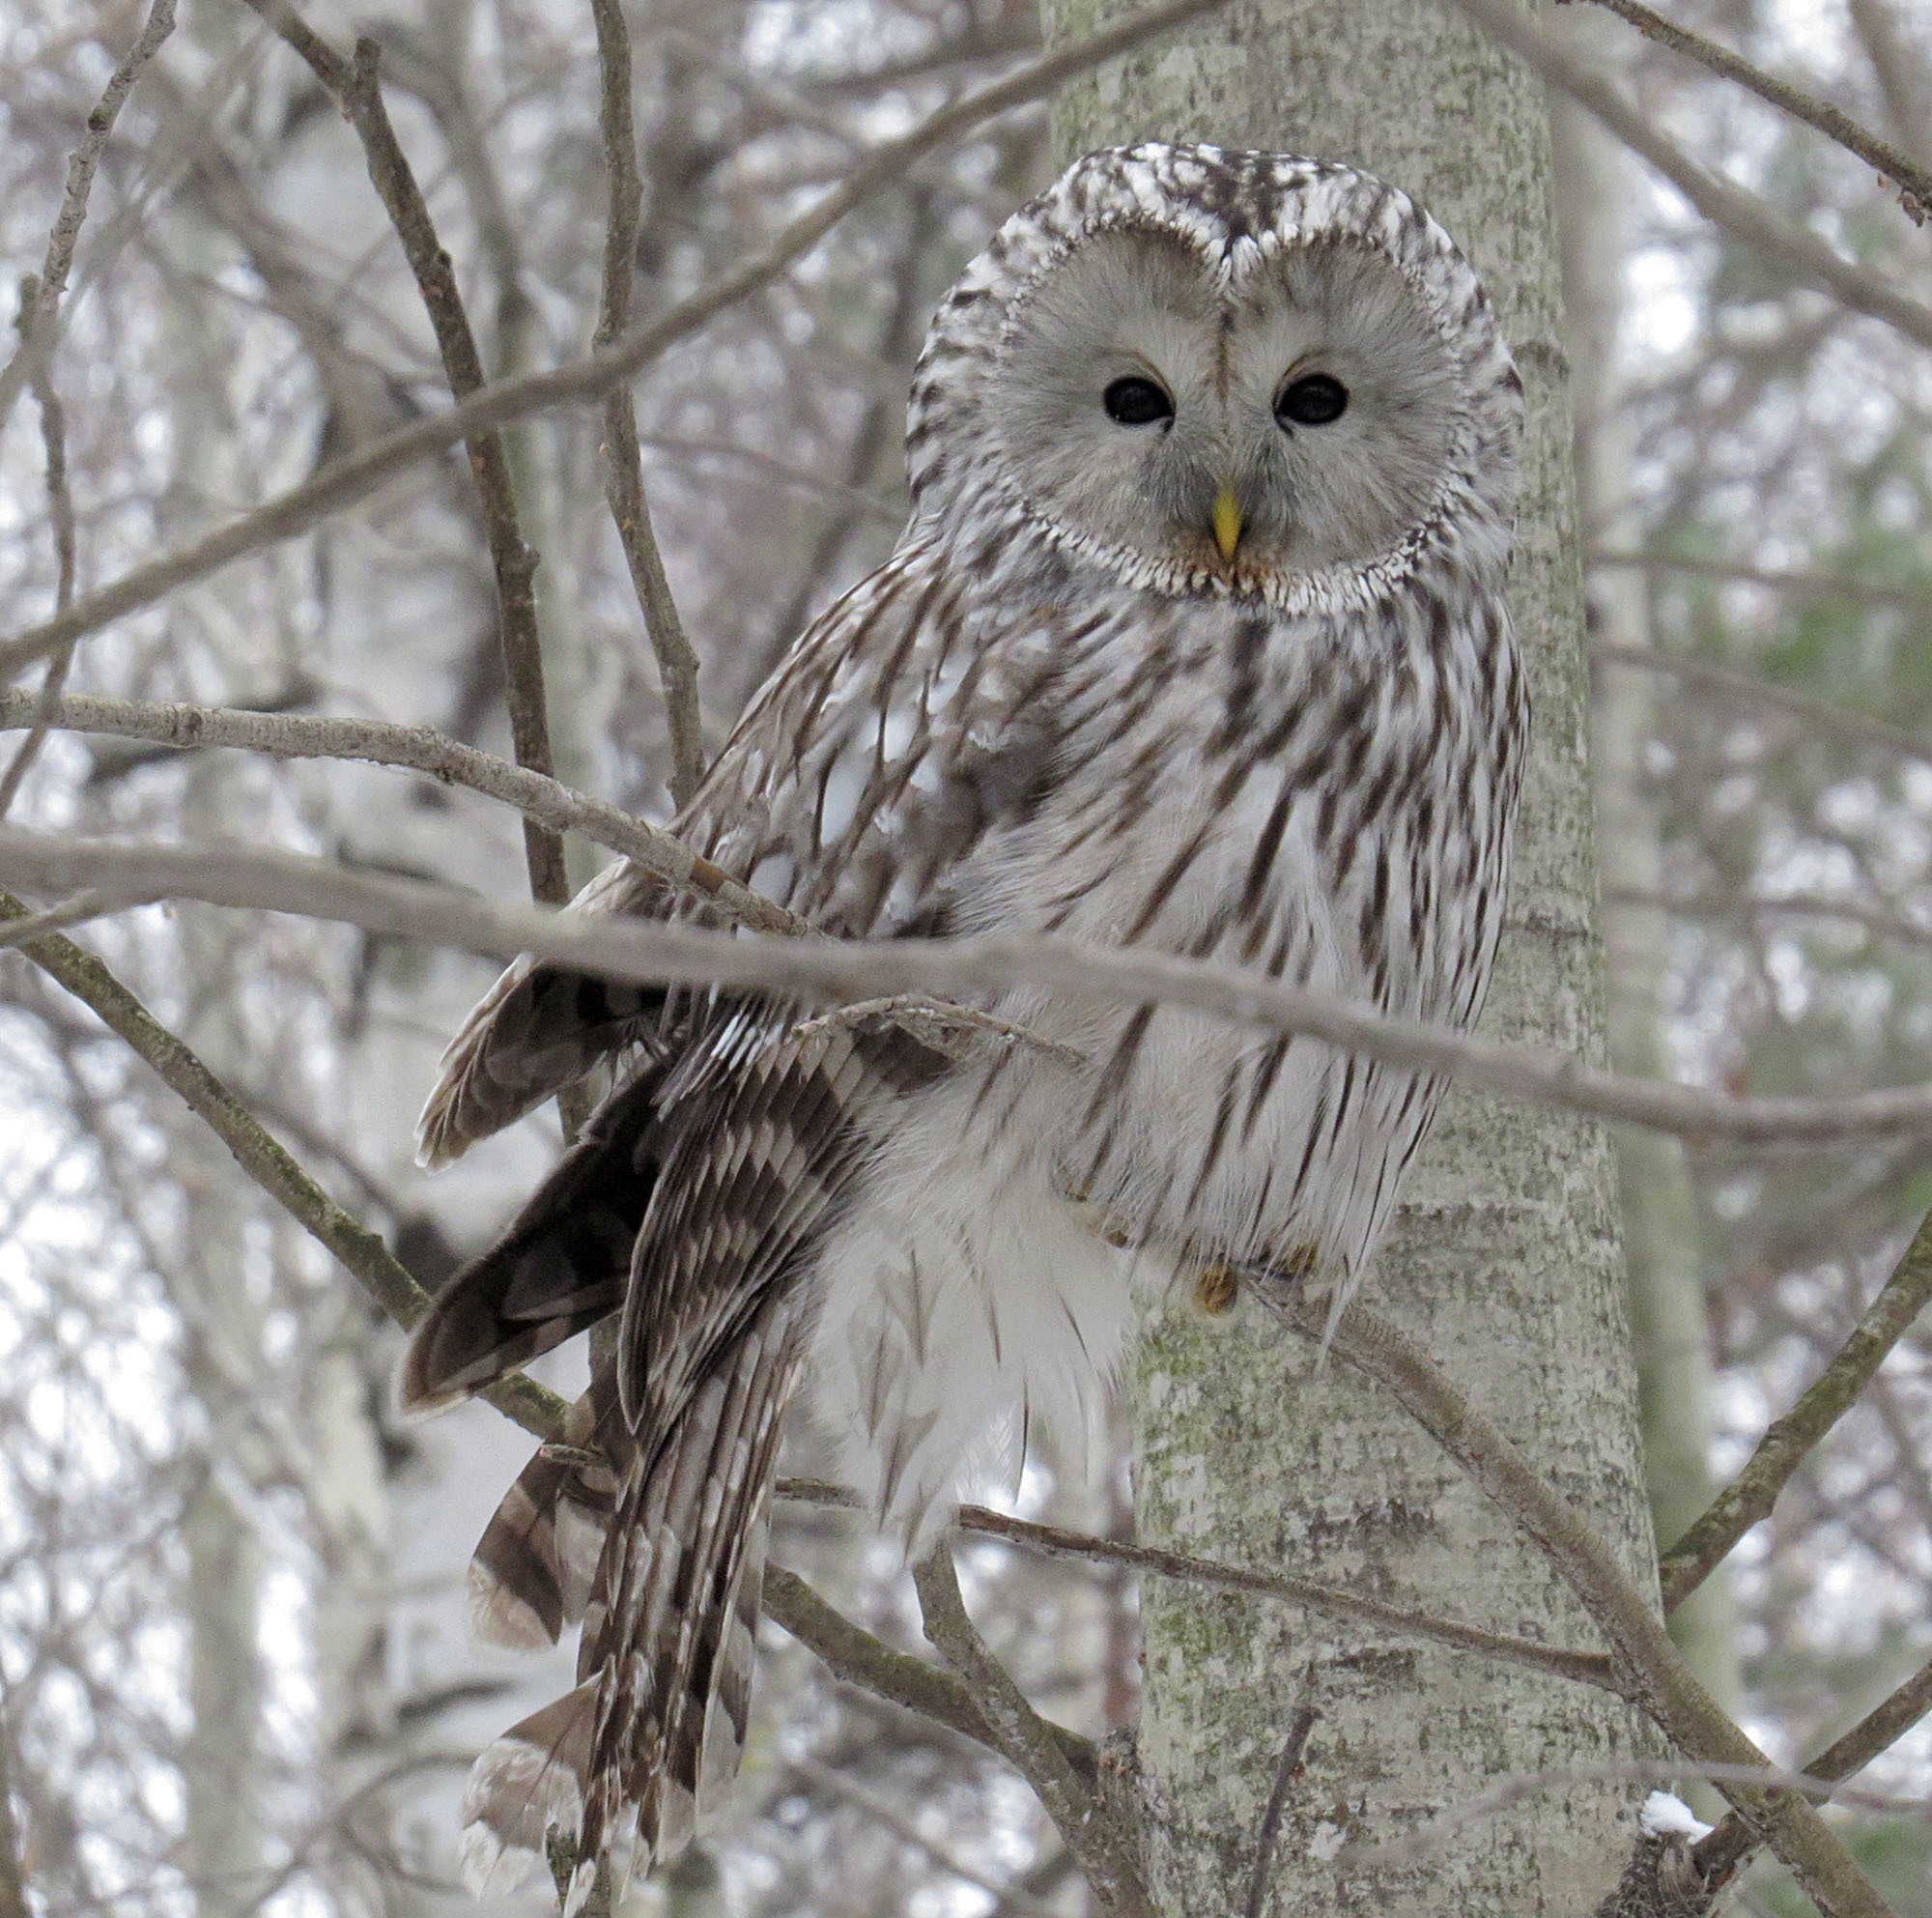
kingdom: Animalia
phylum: Chordata
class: Aves
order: Strigiformes
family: Strigidae
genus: Strix
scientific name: Strix uralensis
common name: Ural owl
